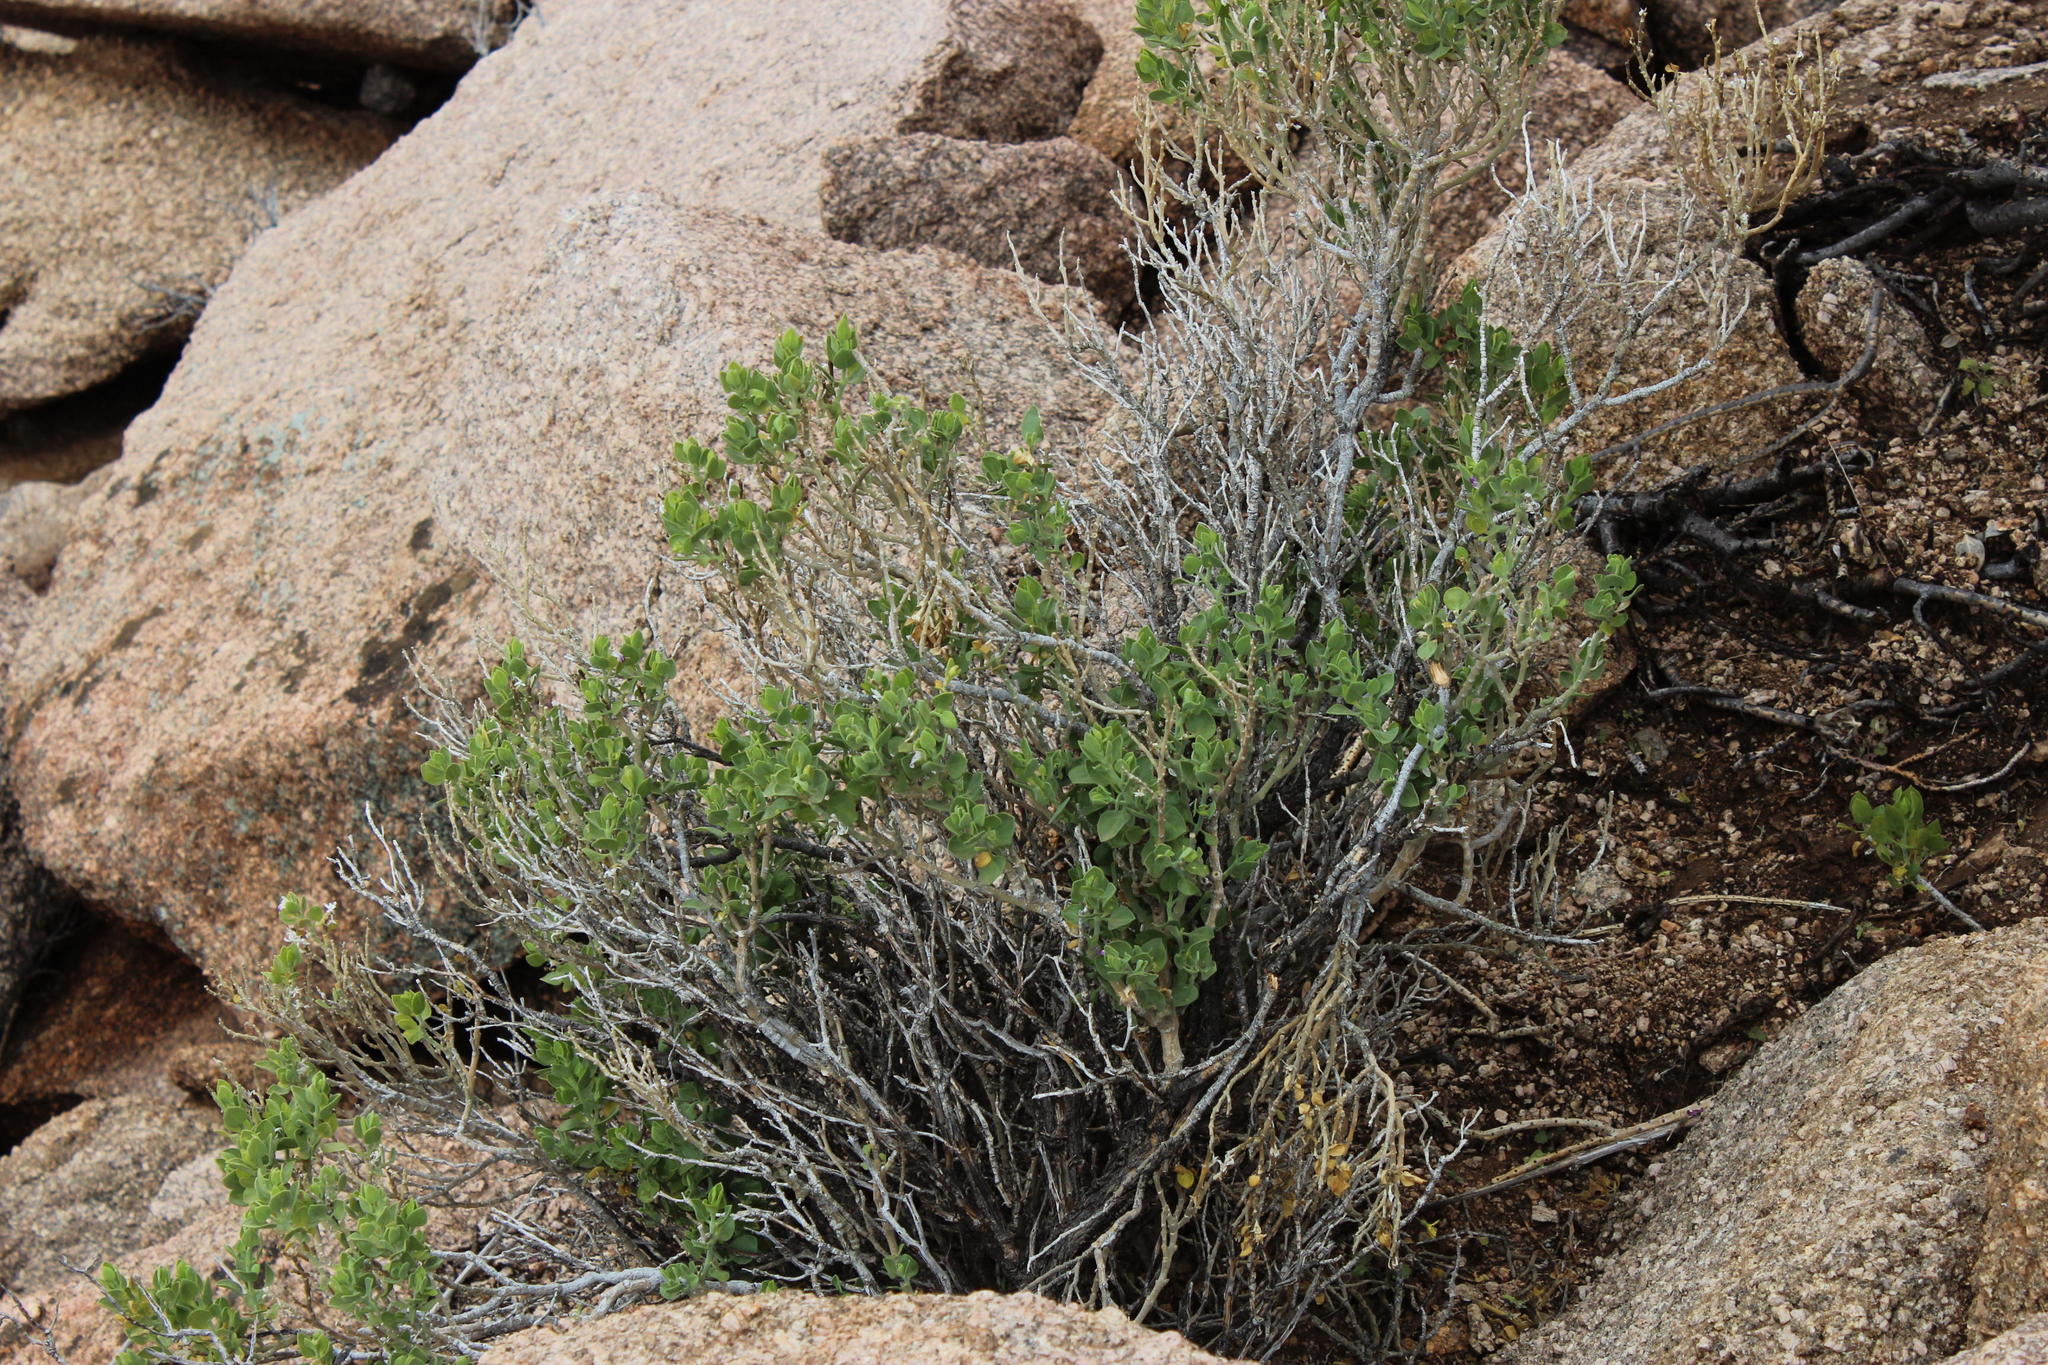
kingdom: Plantae
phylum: Tracheophyta
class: Magnoliopsida
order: Lamiales
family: Acanthaceae
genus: Pogonospermum
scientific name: Pogonospermum
